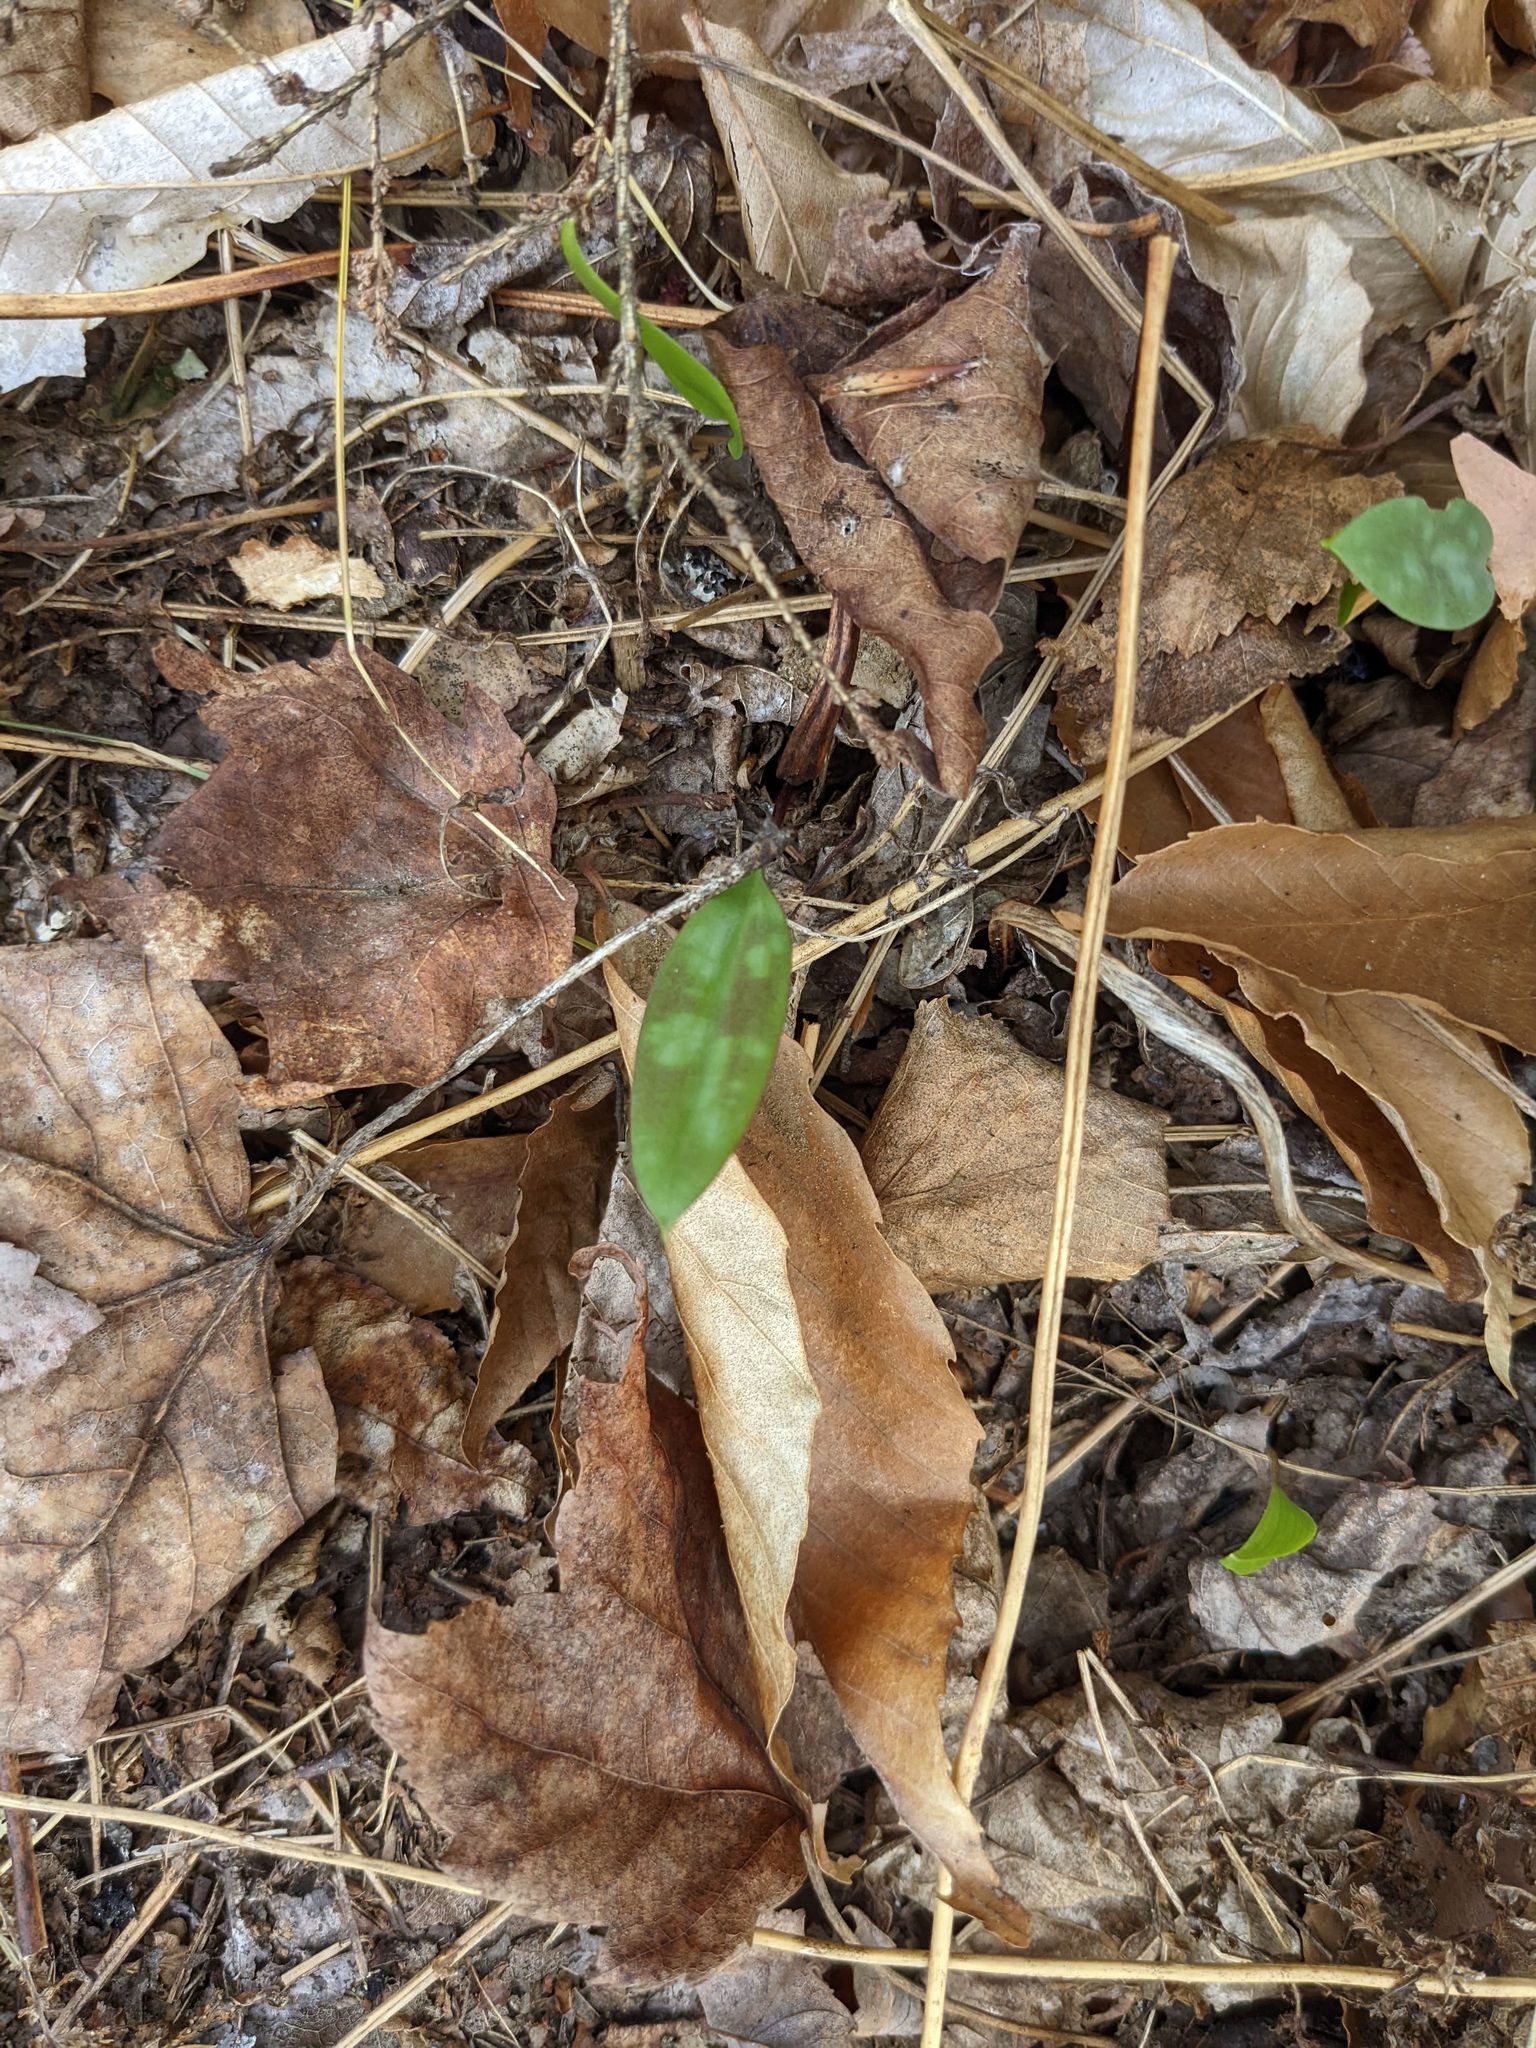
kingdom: Plantae
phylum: Tracheophyta
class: Liliopsida
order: Liliales
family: Liliaceae
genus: Erythronium
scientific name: Erythronium americanum
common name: Yellow adder's-tongue
